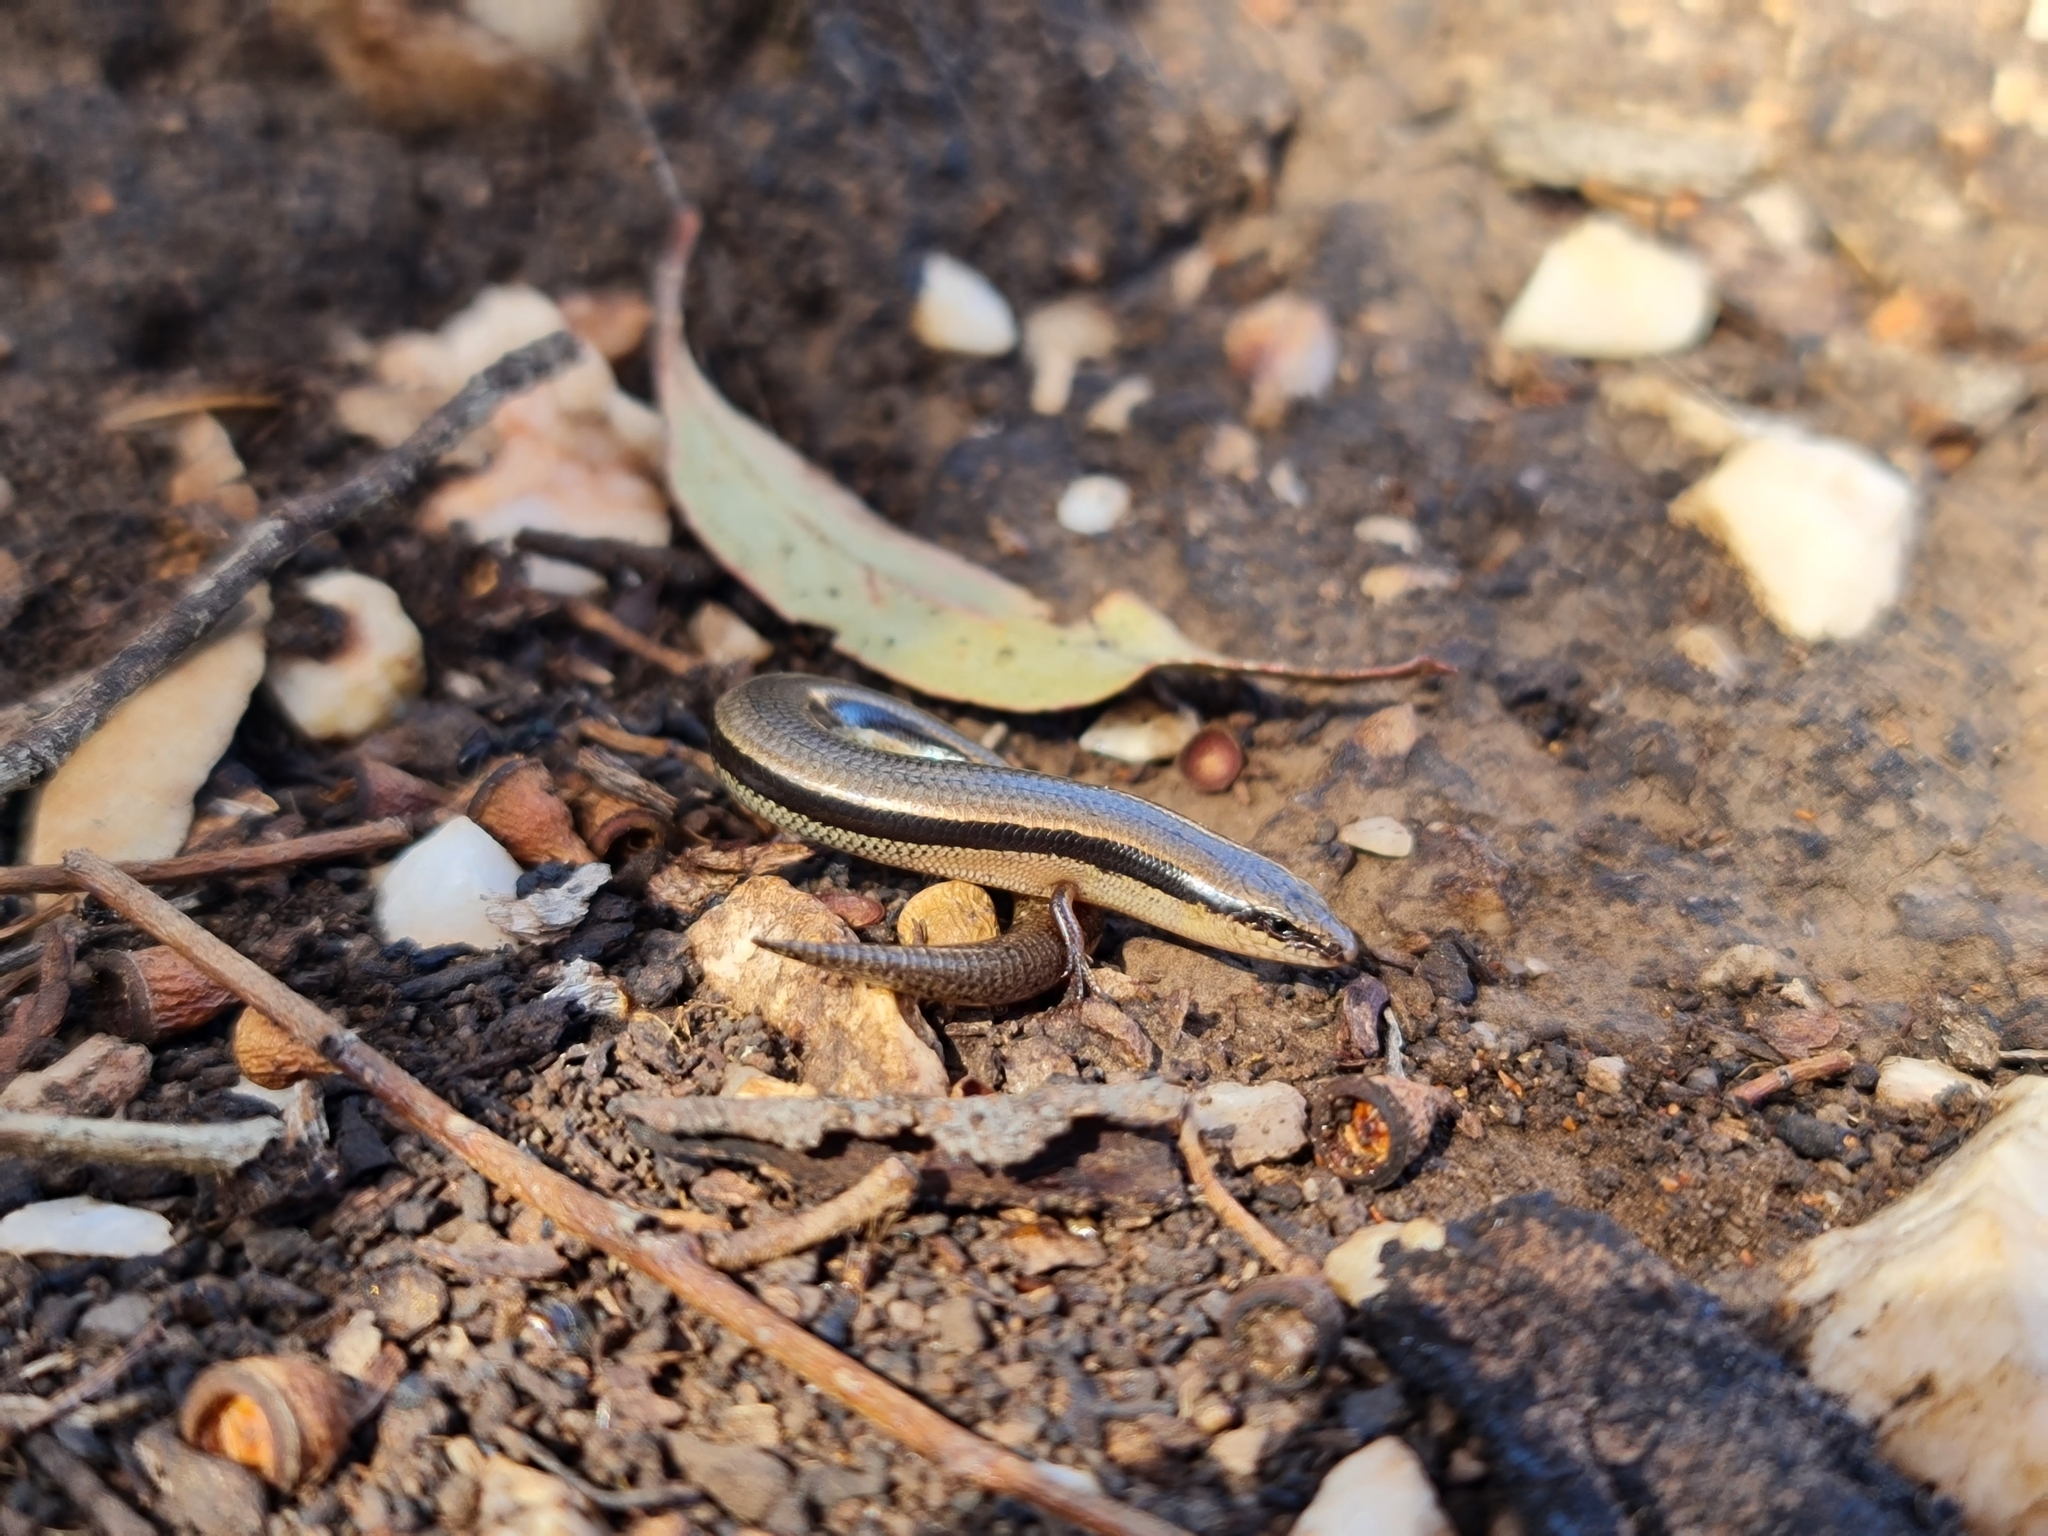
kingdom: Animalia
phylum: Chordata
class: Squamata
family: Scincidae
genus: Lerista
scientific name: Lerista bougainvillii
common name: South-eastern slider
